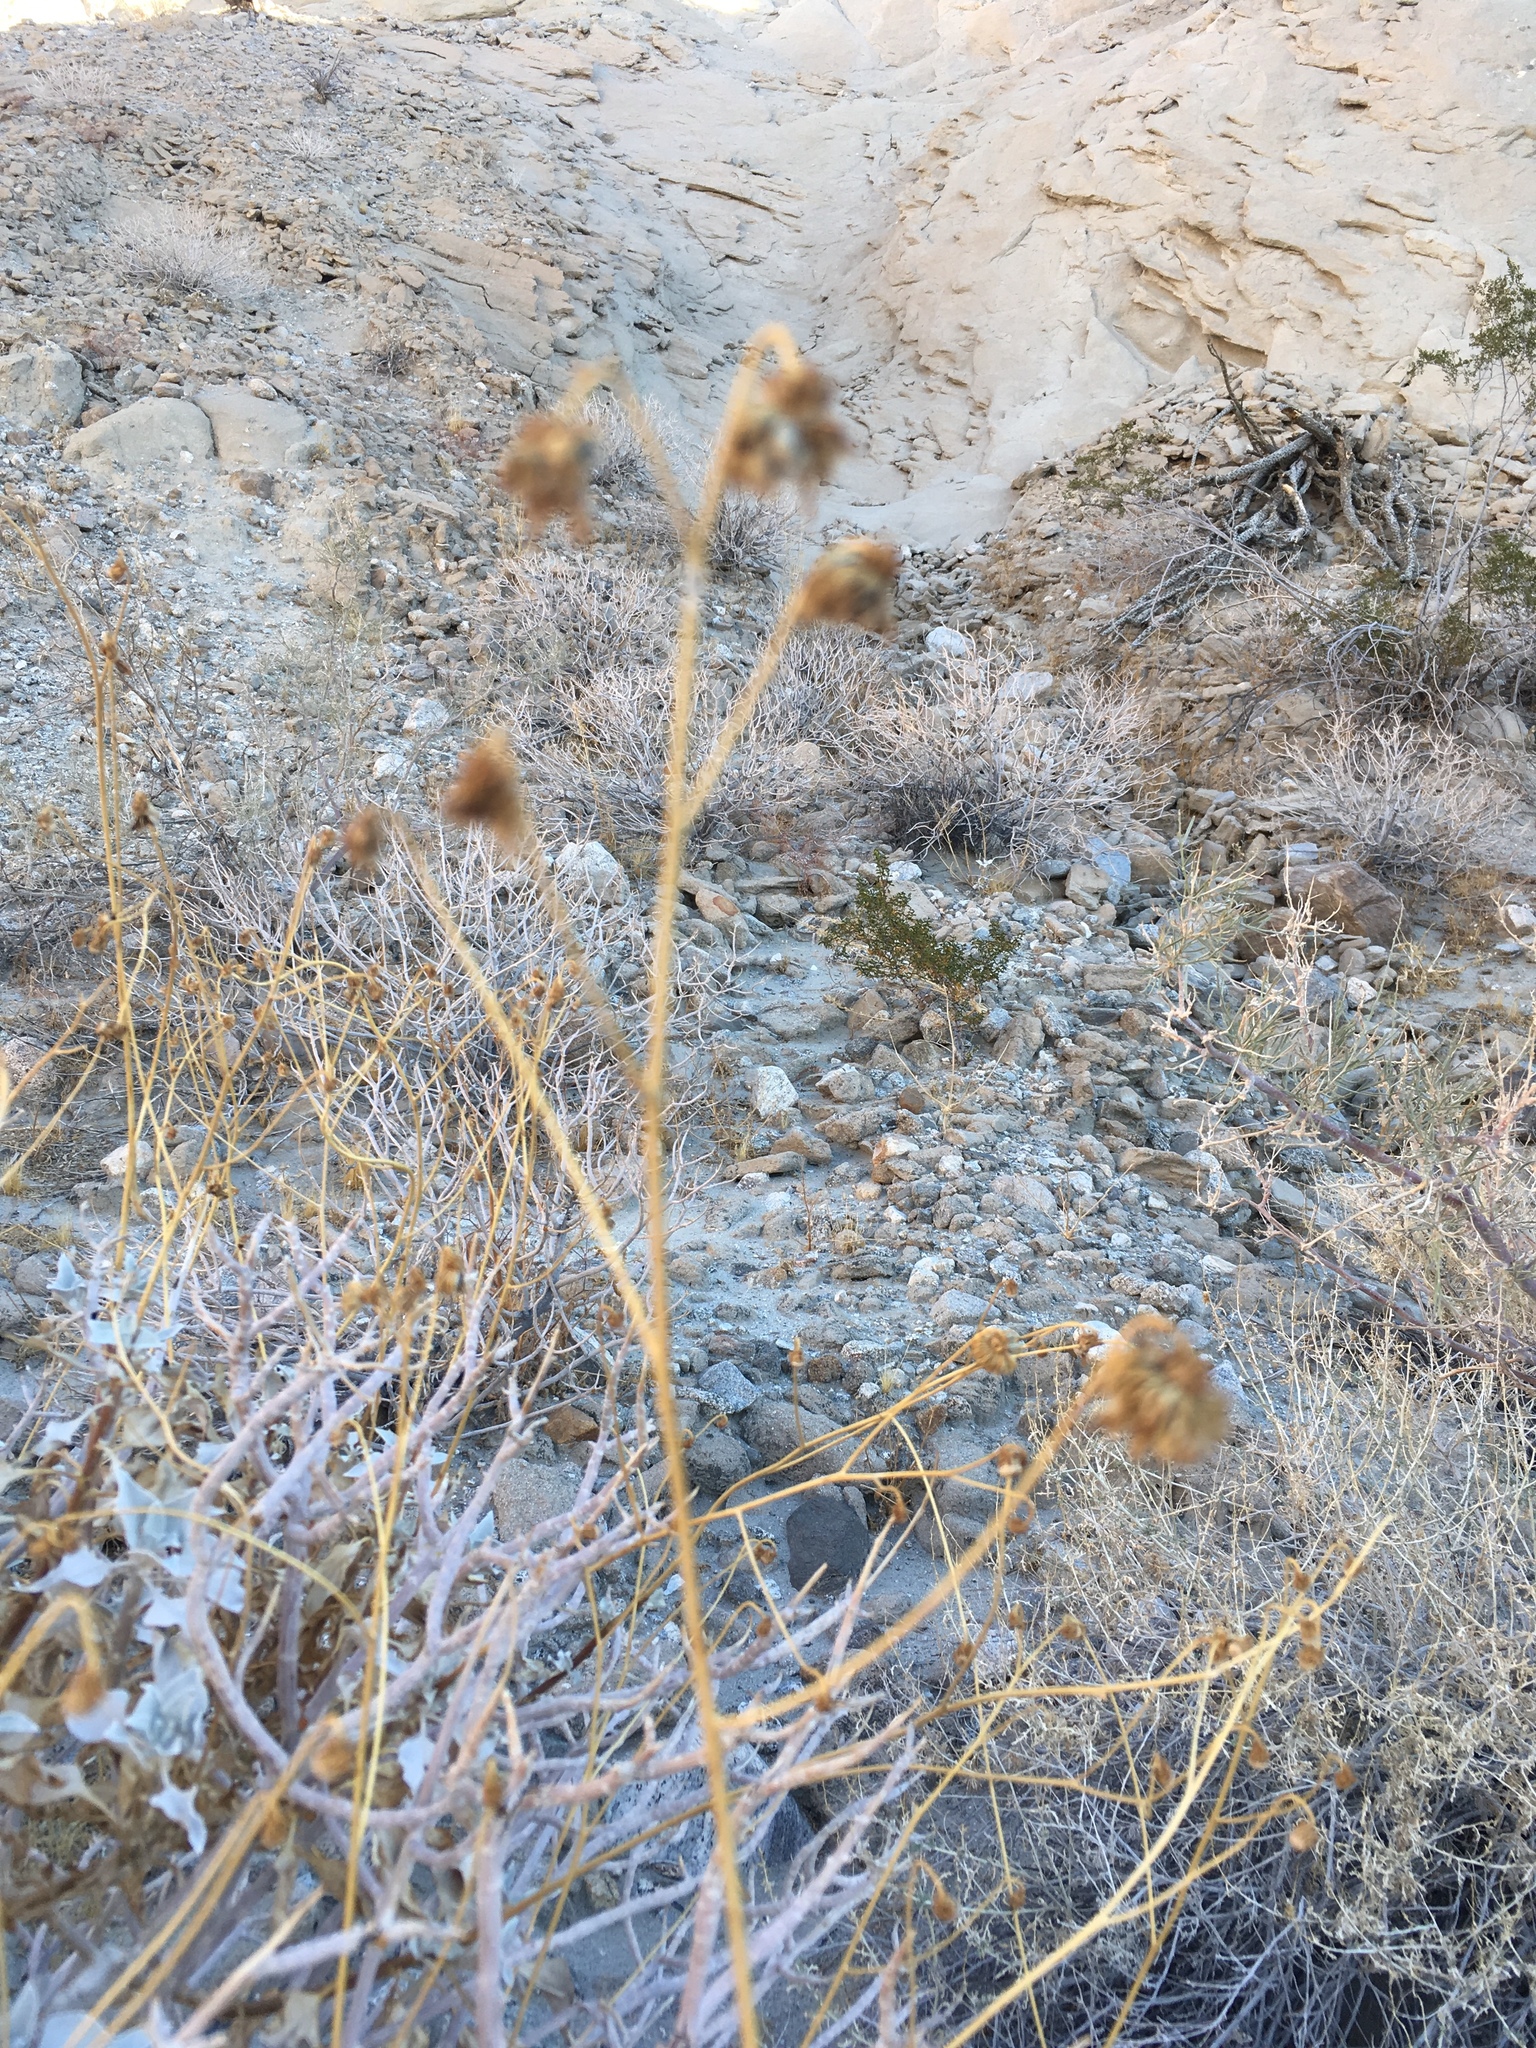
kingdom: Plantae
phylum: Tracheophyta
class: Magnoliopsida
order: Asterales
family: Asteraceae
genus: Encelia
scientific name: Encelia farinosa
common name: Brittlebush
